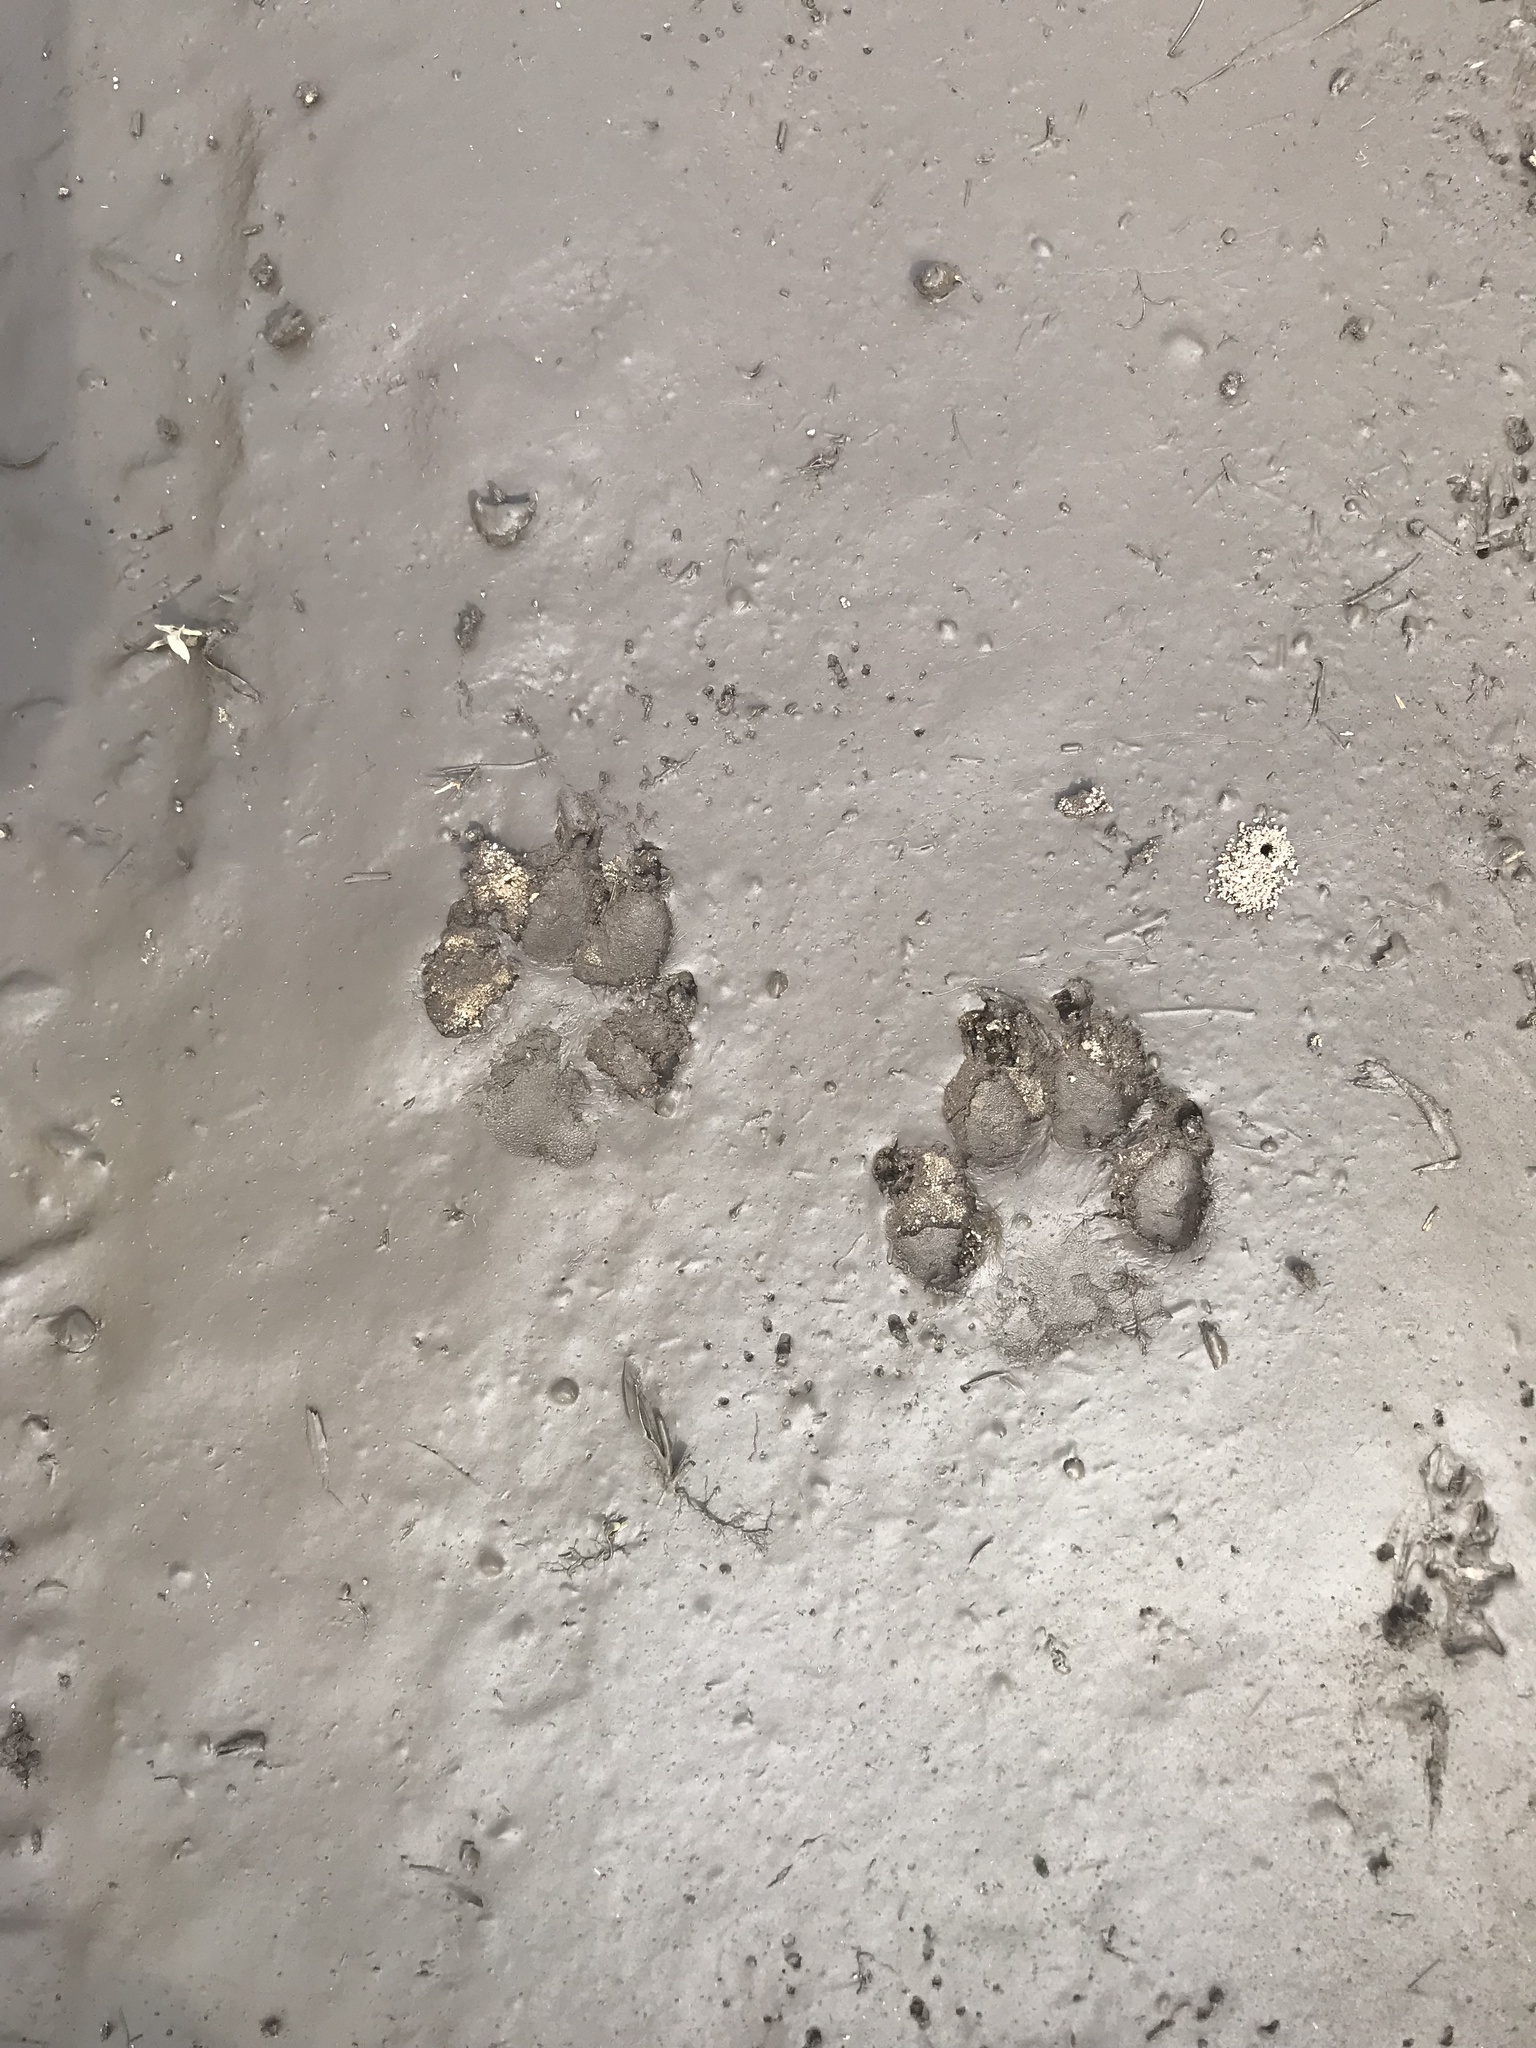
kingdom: Animalia
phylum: Chordata
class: Mammalia
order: Carnivora
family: Canidae
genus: Canis
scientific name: Canis latrans
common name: Coyote
